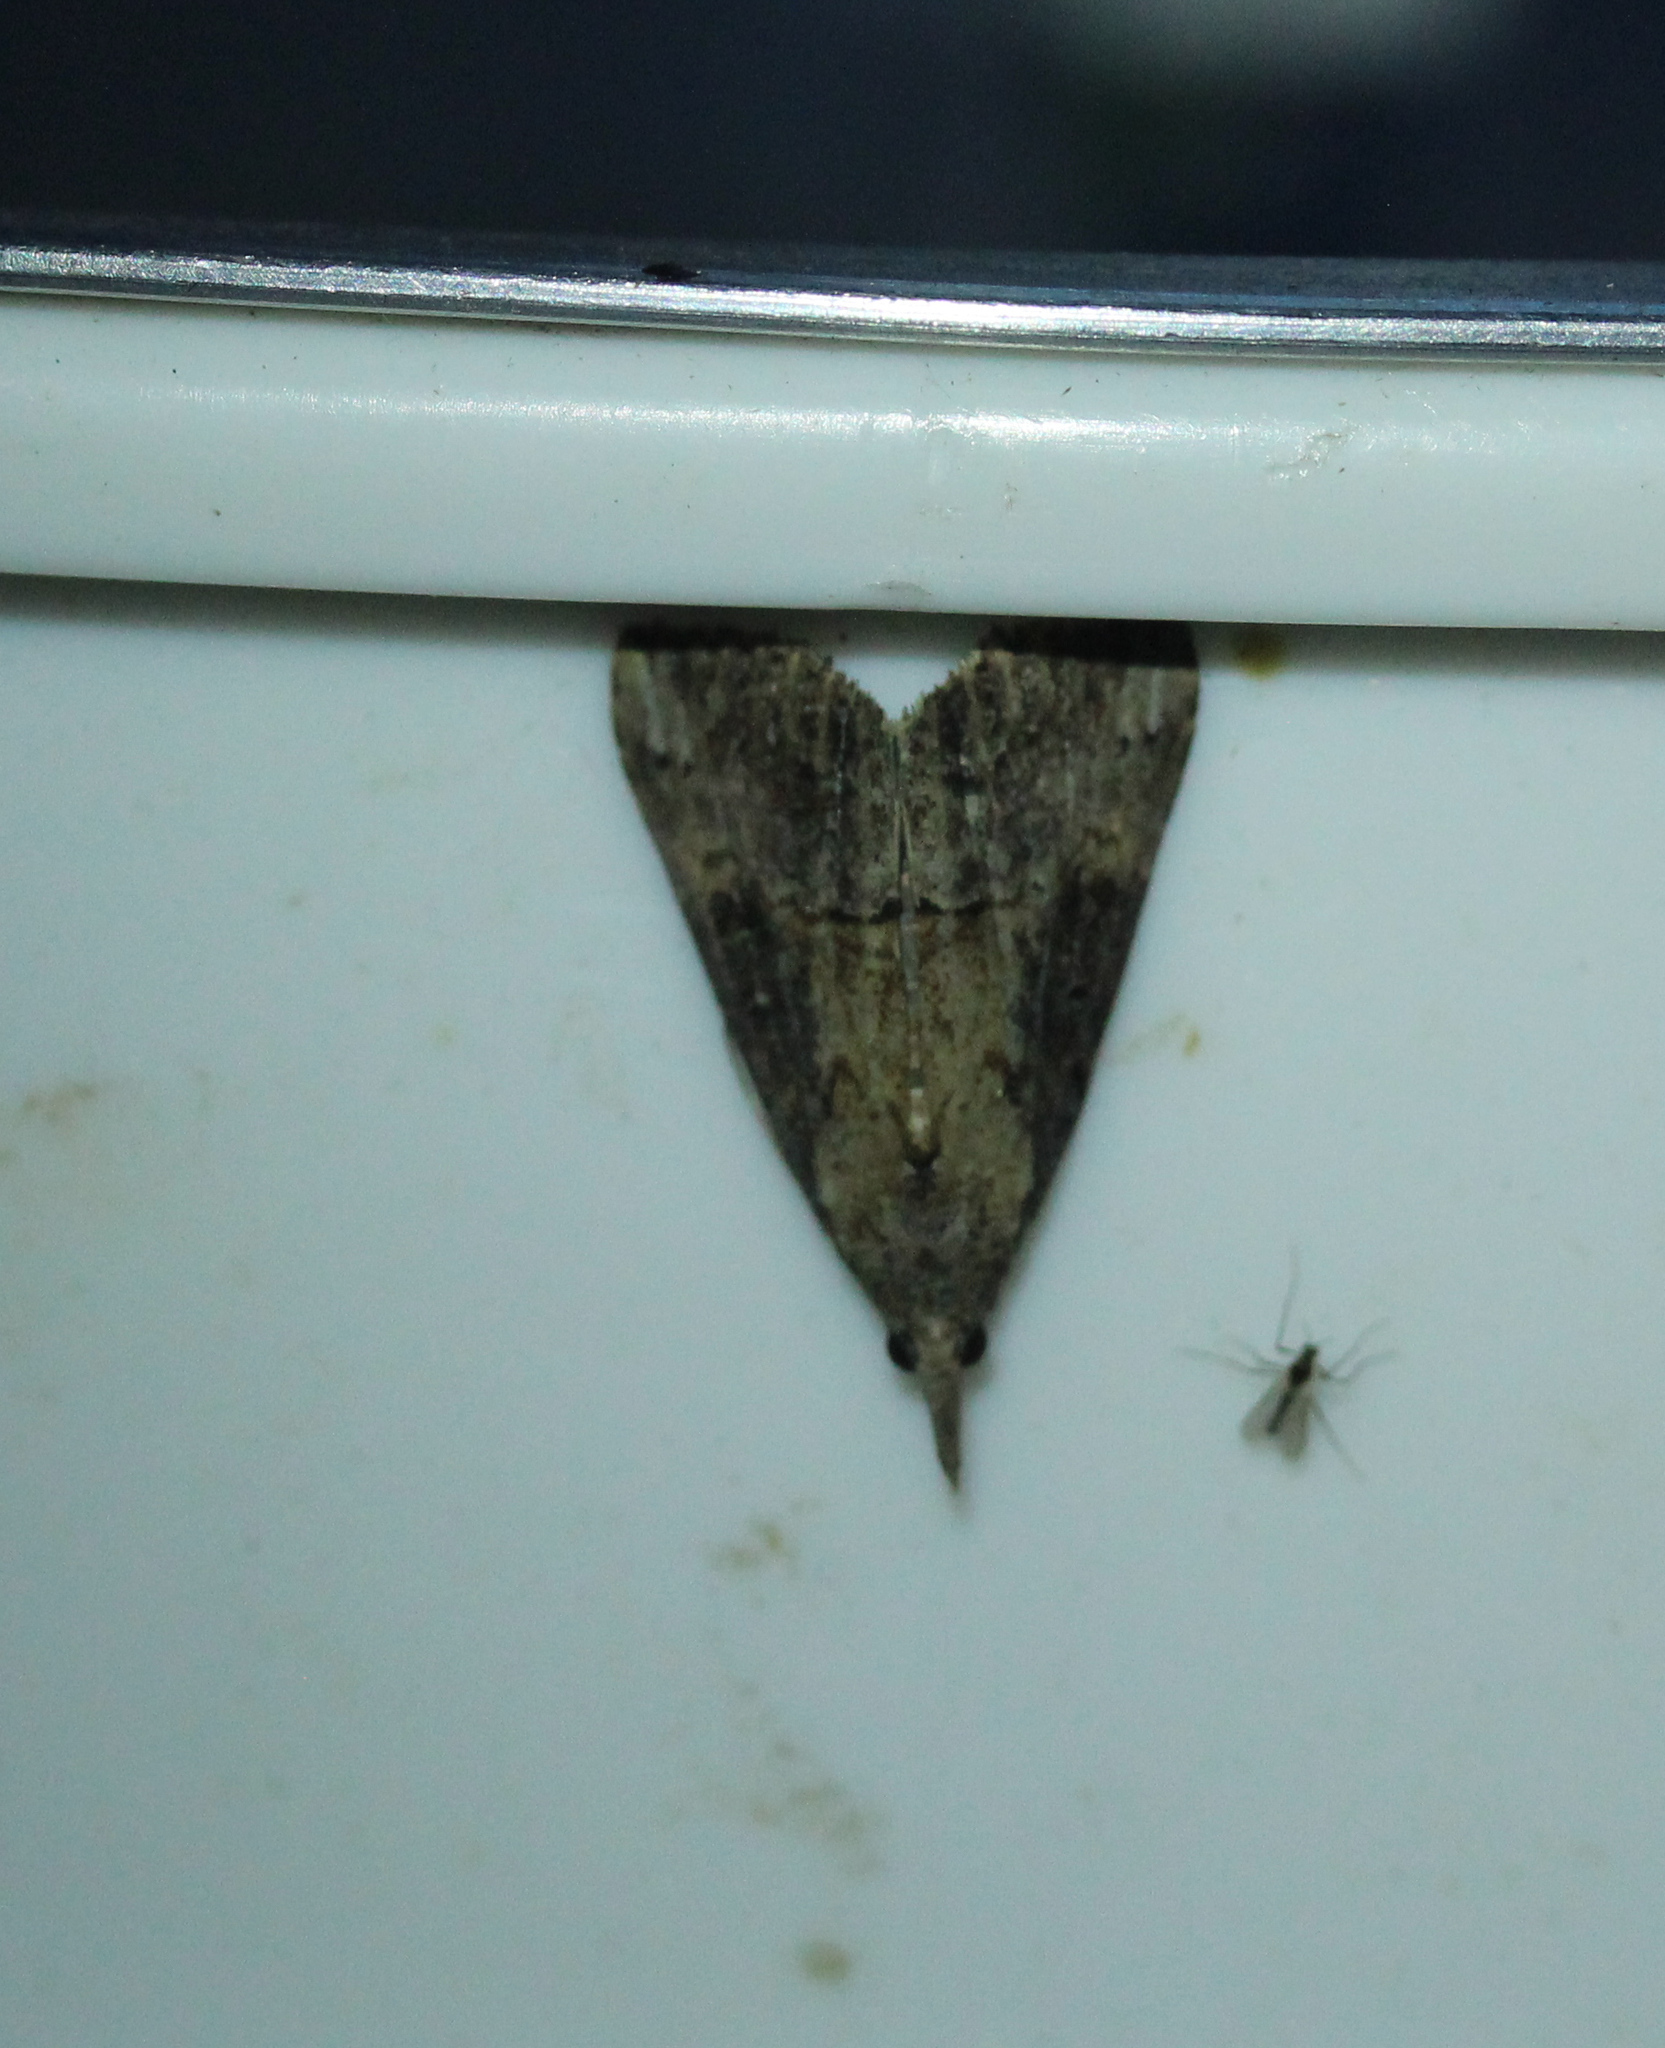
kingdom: Animalia
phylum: Arthropoda
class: Insecta
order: Lepidoptera
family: Erebidae
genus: Hypena
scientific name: Hypena scabra
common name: Green cloverworm
